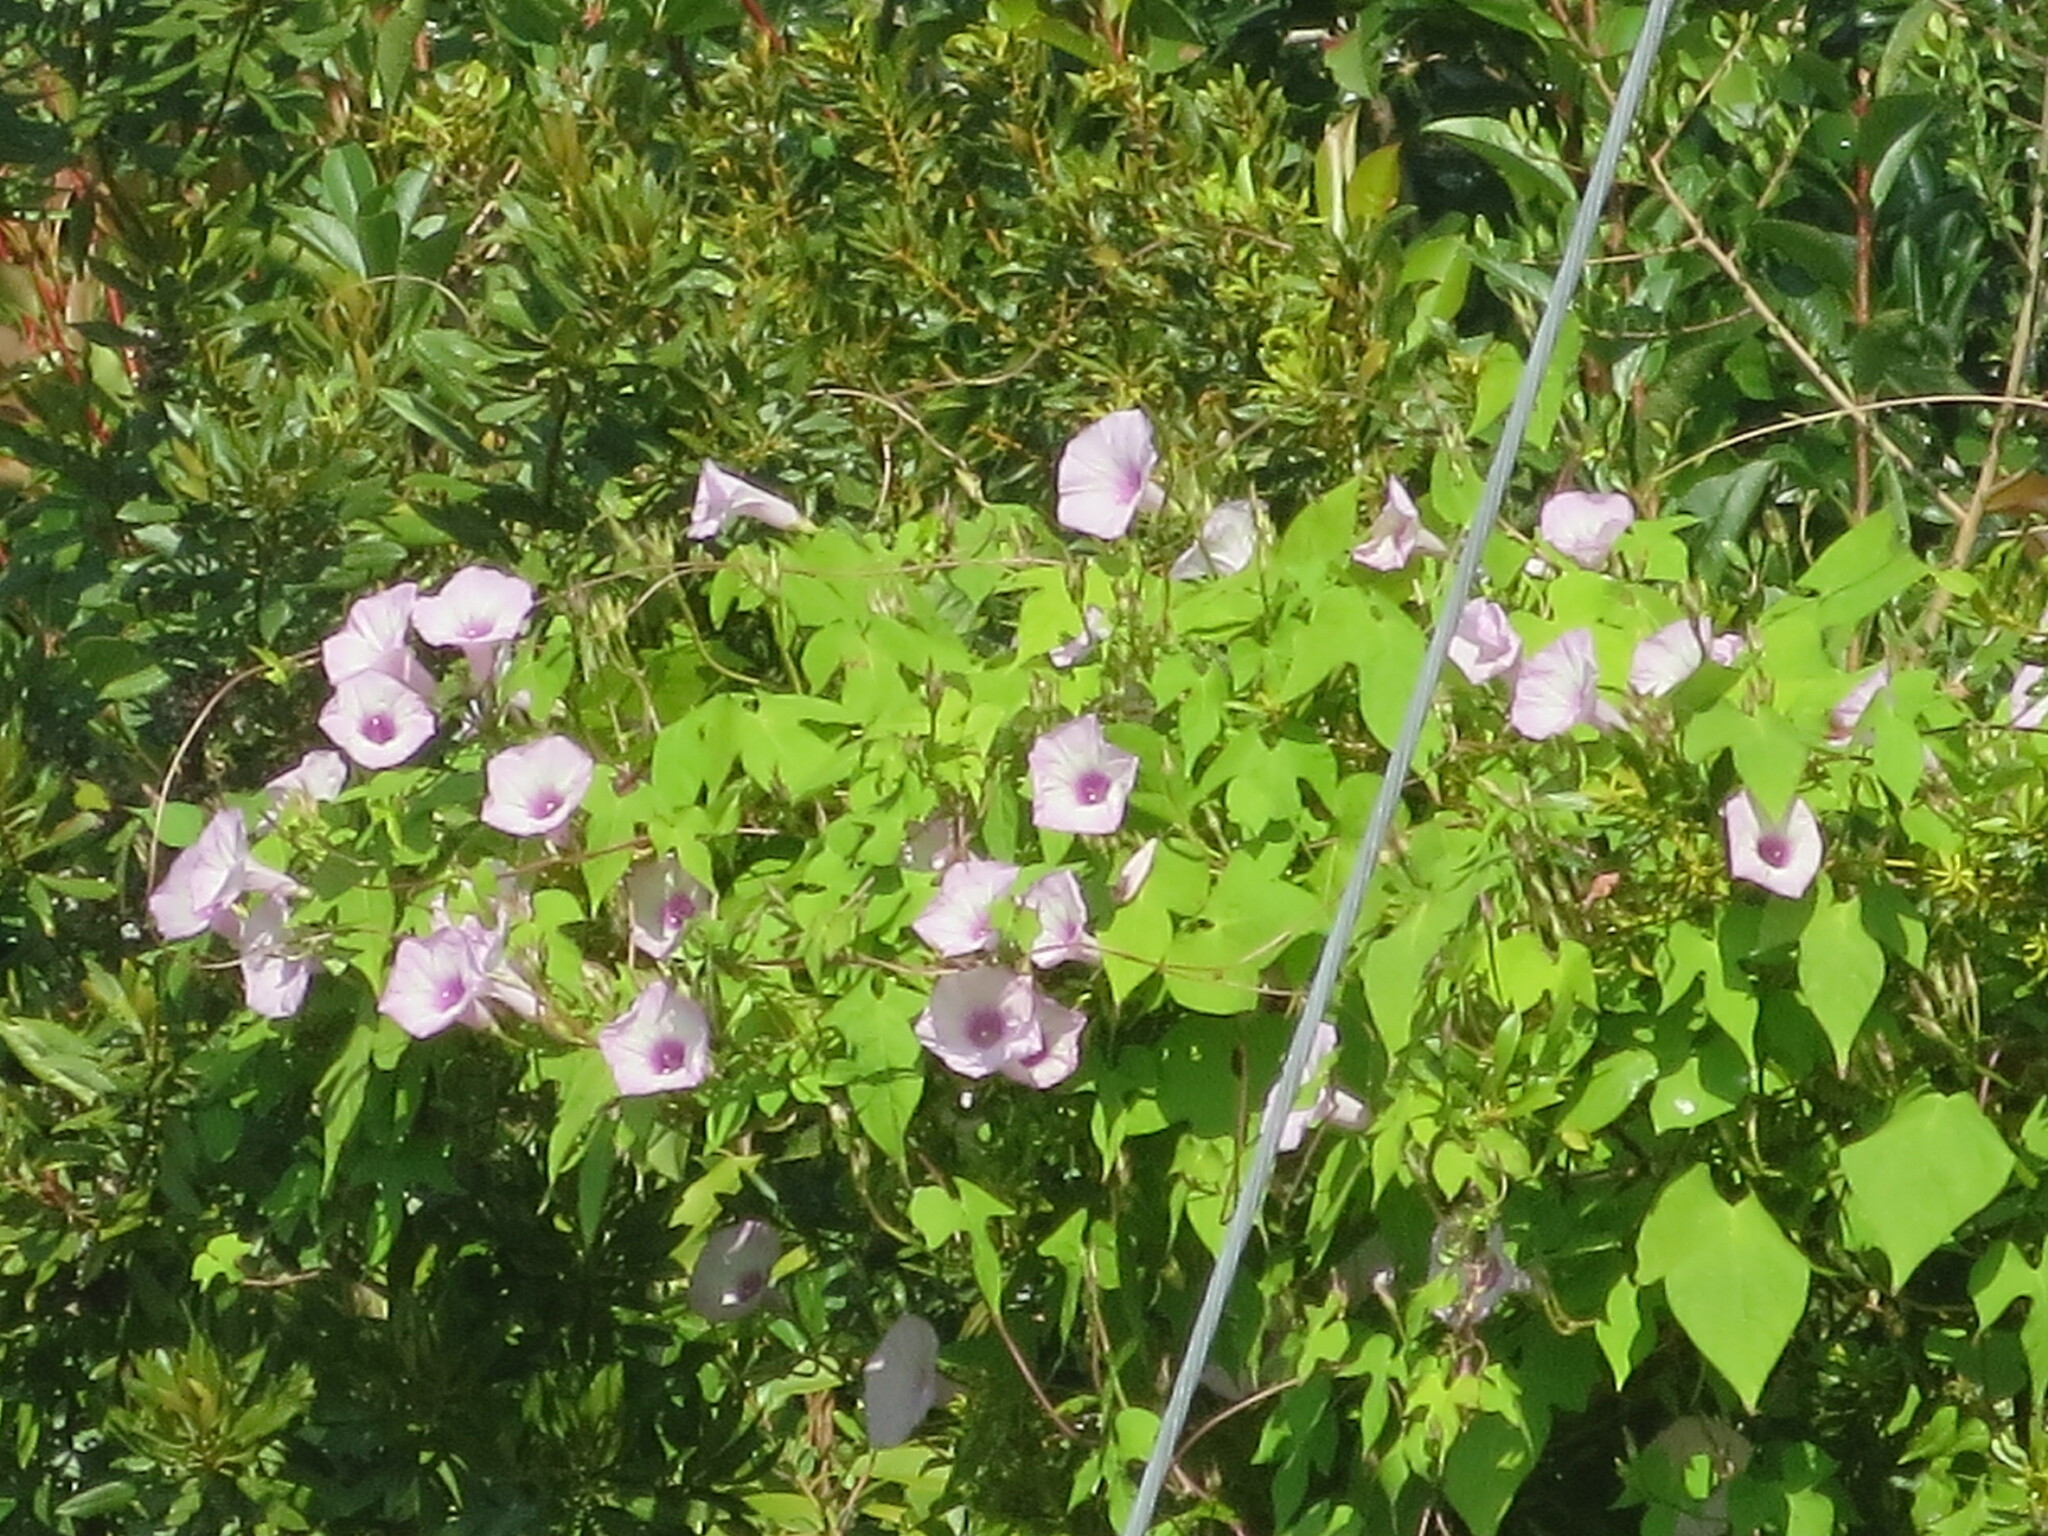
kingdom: Plantae
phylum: Tracheophyta
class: Magnoliopsida
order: Solanales
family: Convolvulaceae
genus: Ipomoea
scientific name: Ipomoea cordatotriloba
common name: Cotton morning glory
